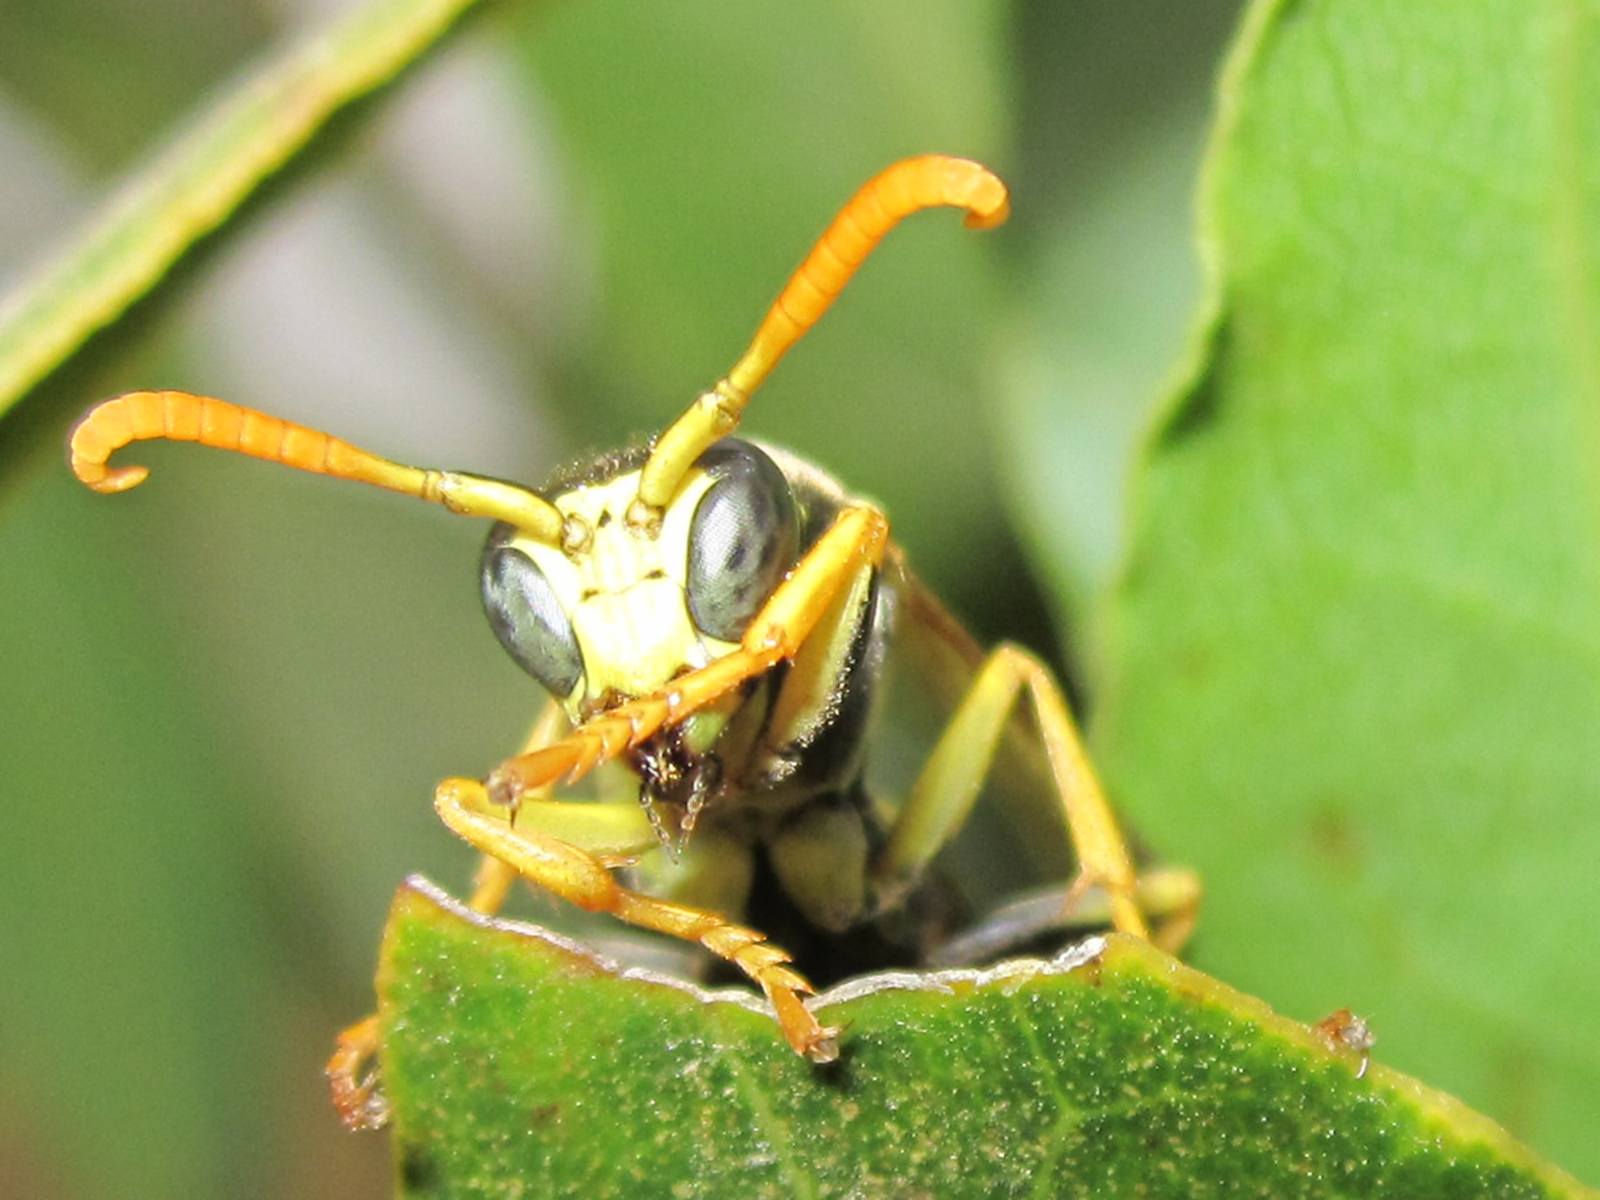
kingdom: Animalia
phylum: Arthropoda
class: Insecta
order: Hymenoptera
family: Eumenidae
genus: Polistes
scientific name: Polistes dominula
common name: Paper wasp
